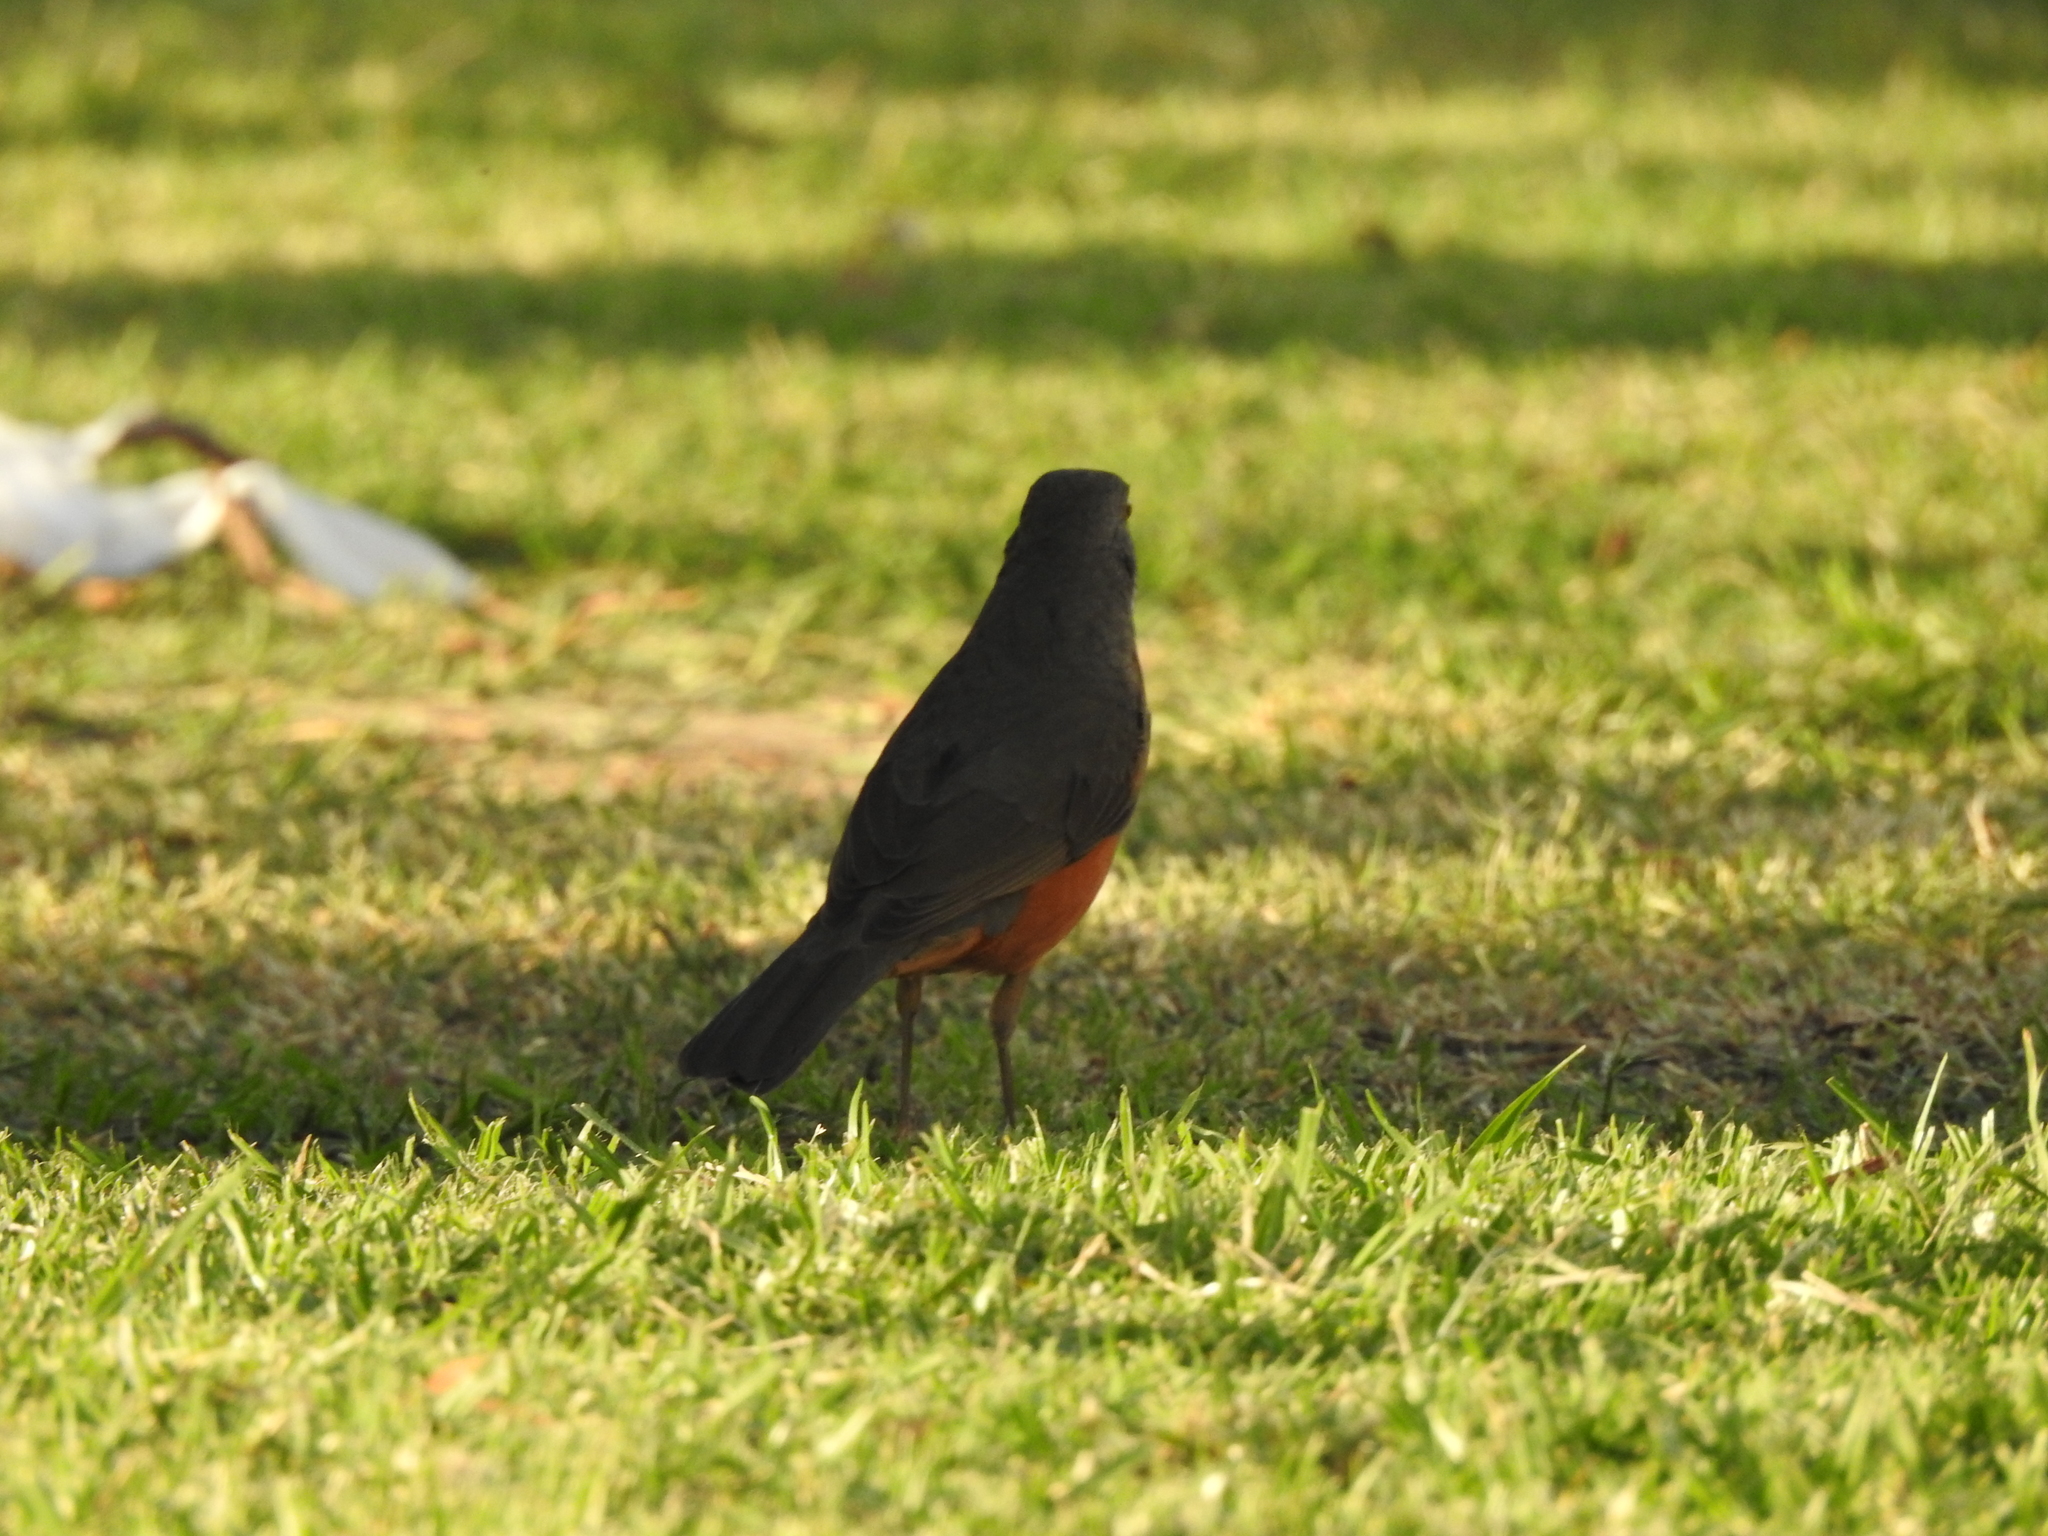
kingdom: Animalia
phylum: Chordata
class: Aves
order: Passeriformes
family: Turdidae
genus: Turdus
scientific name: Turdus rufiventris
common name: Rufous-bellied thrush
